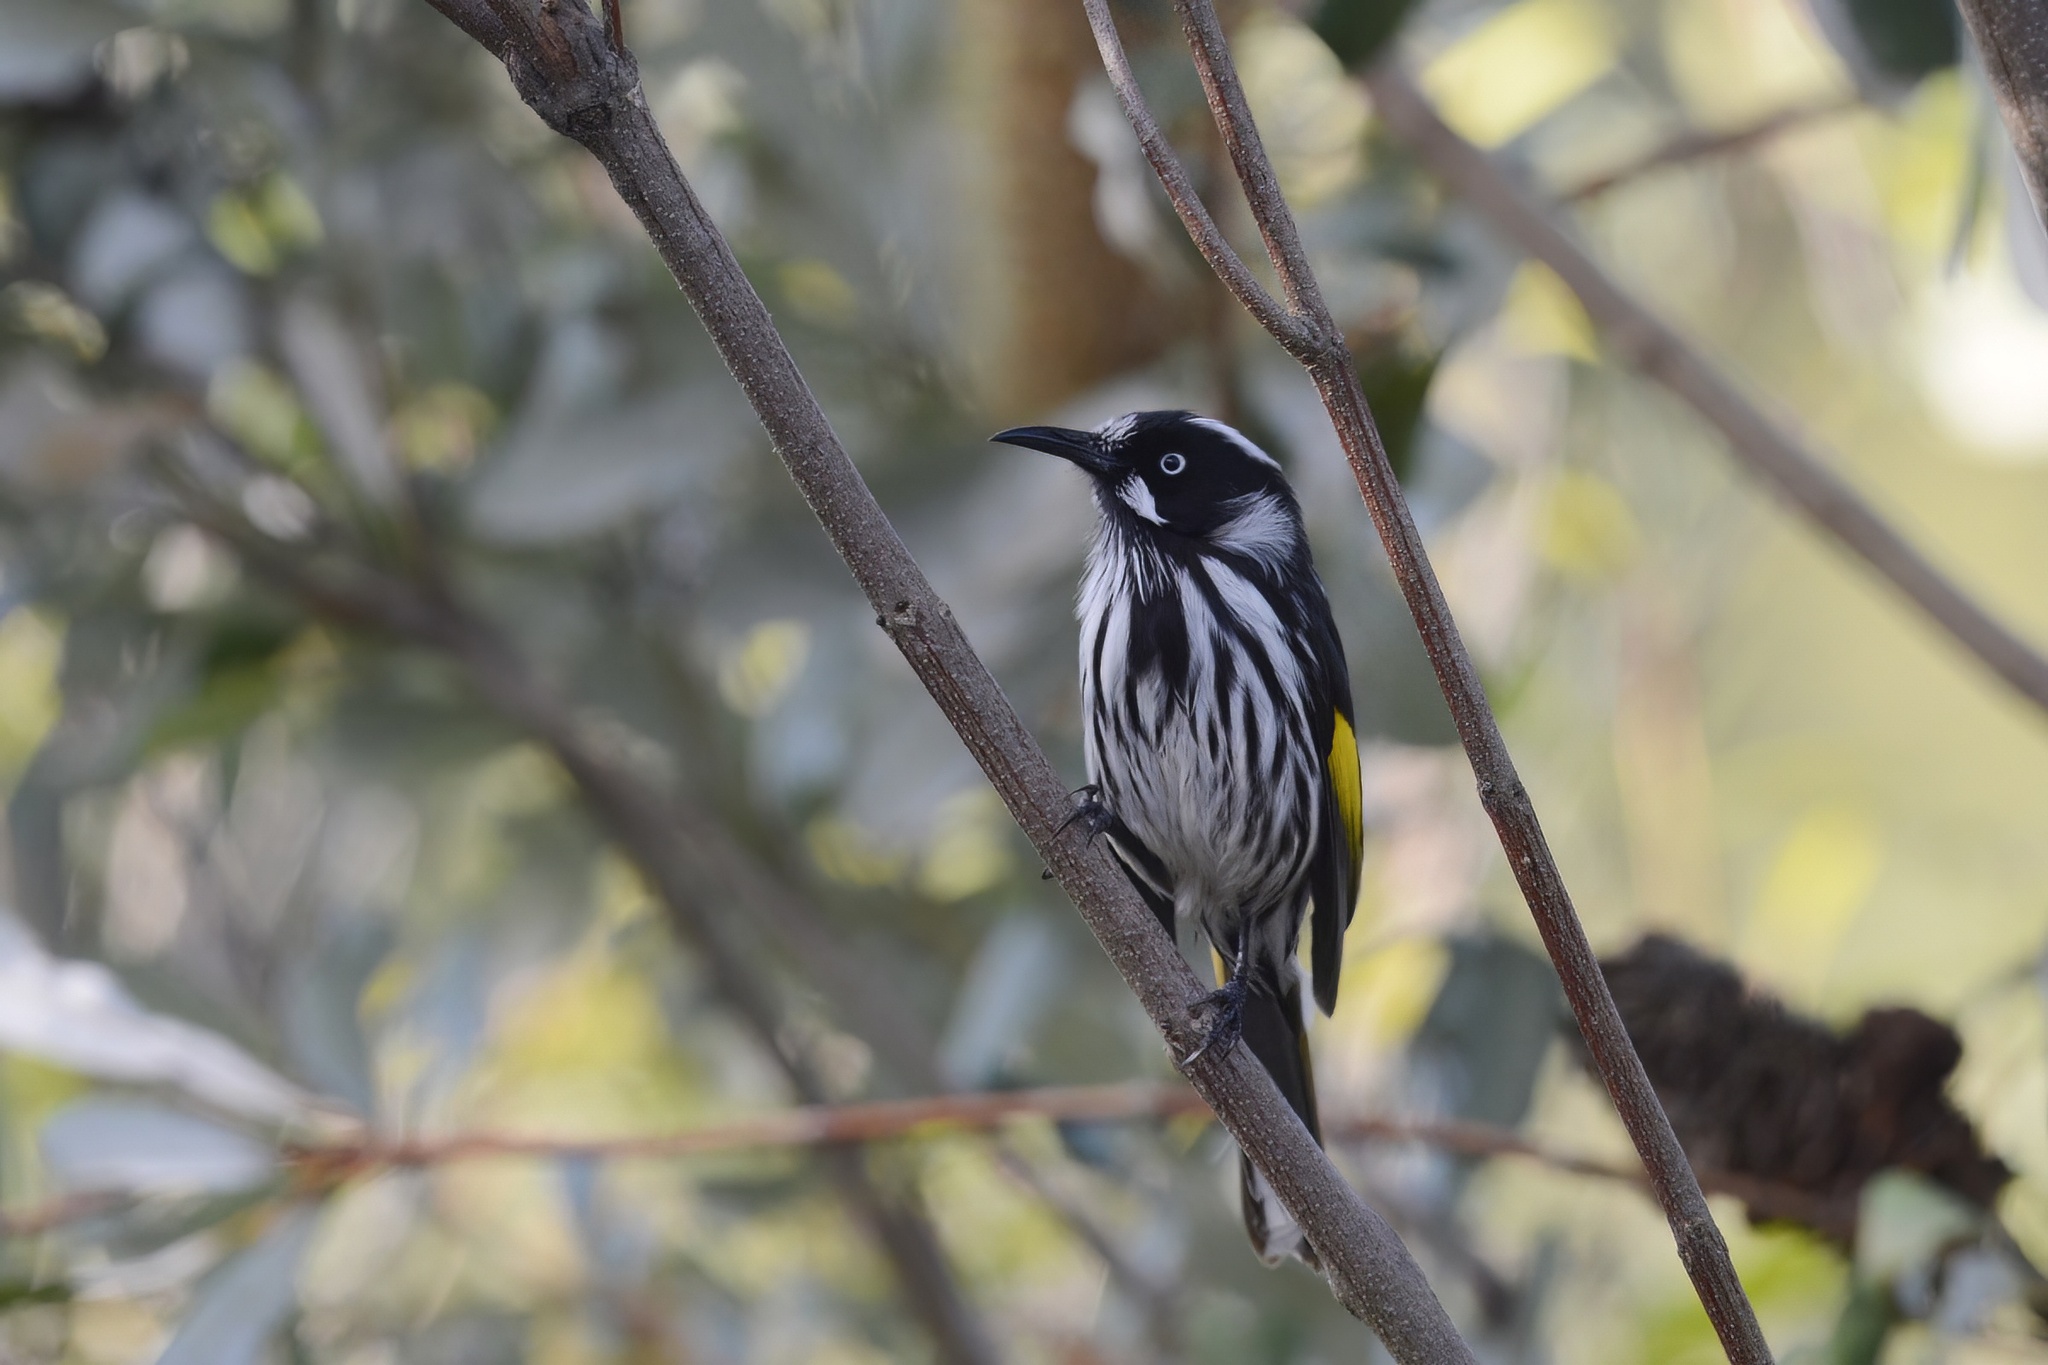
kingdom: Animalia
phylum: Chordata
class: Aves
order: Passeriformes
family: Meliphagidae
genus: Phylidonyris
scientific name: Phylidonyris novaehollandiae
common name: New holland honeyeater
